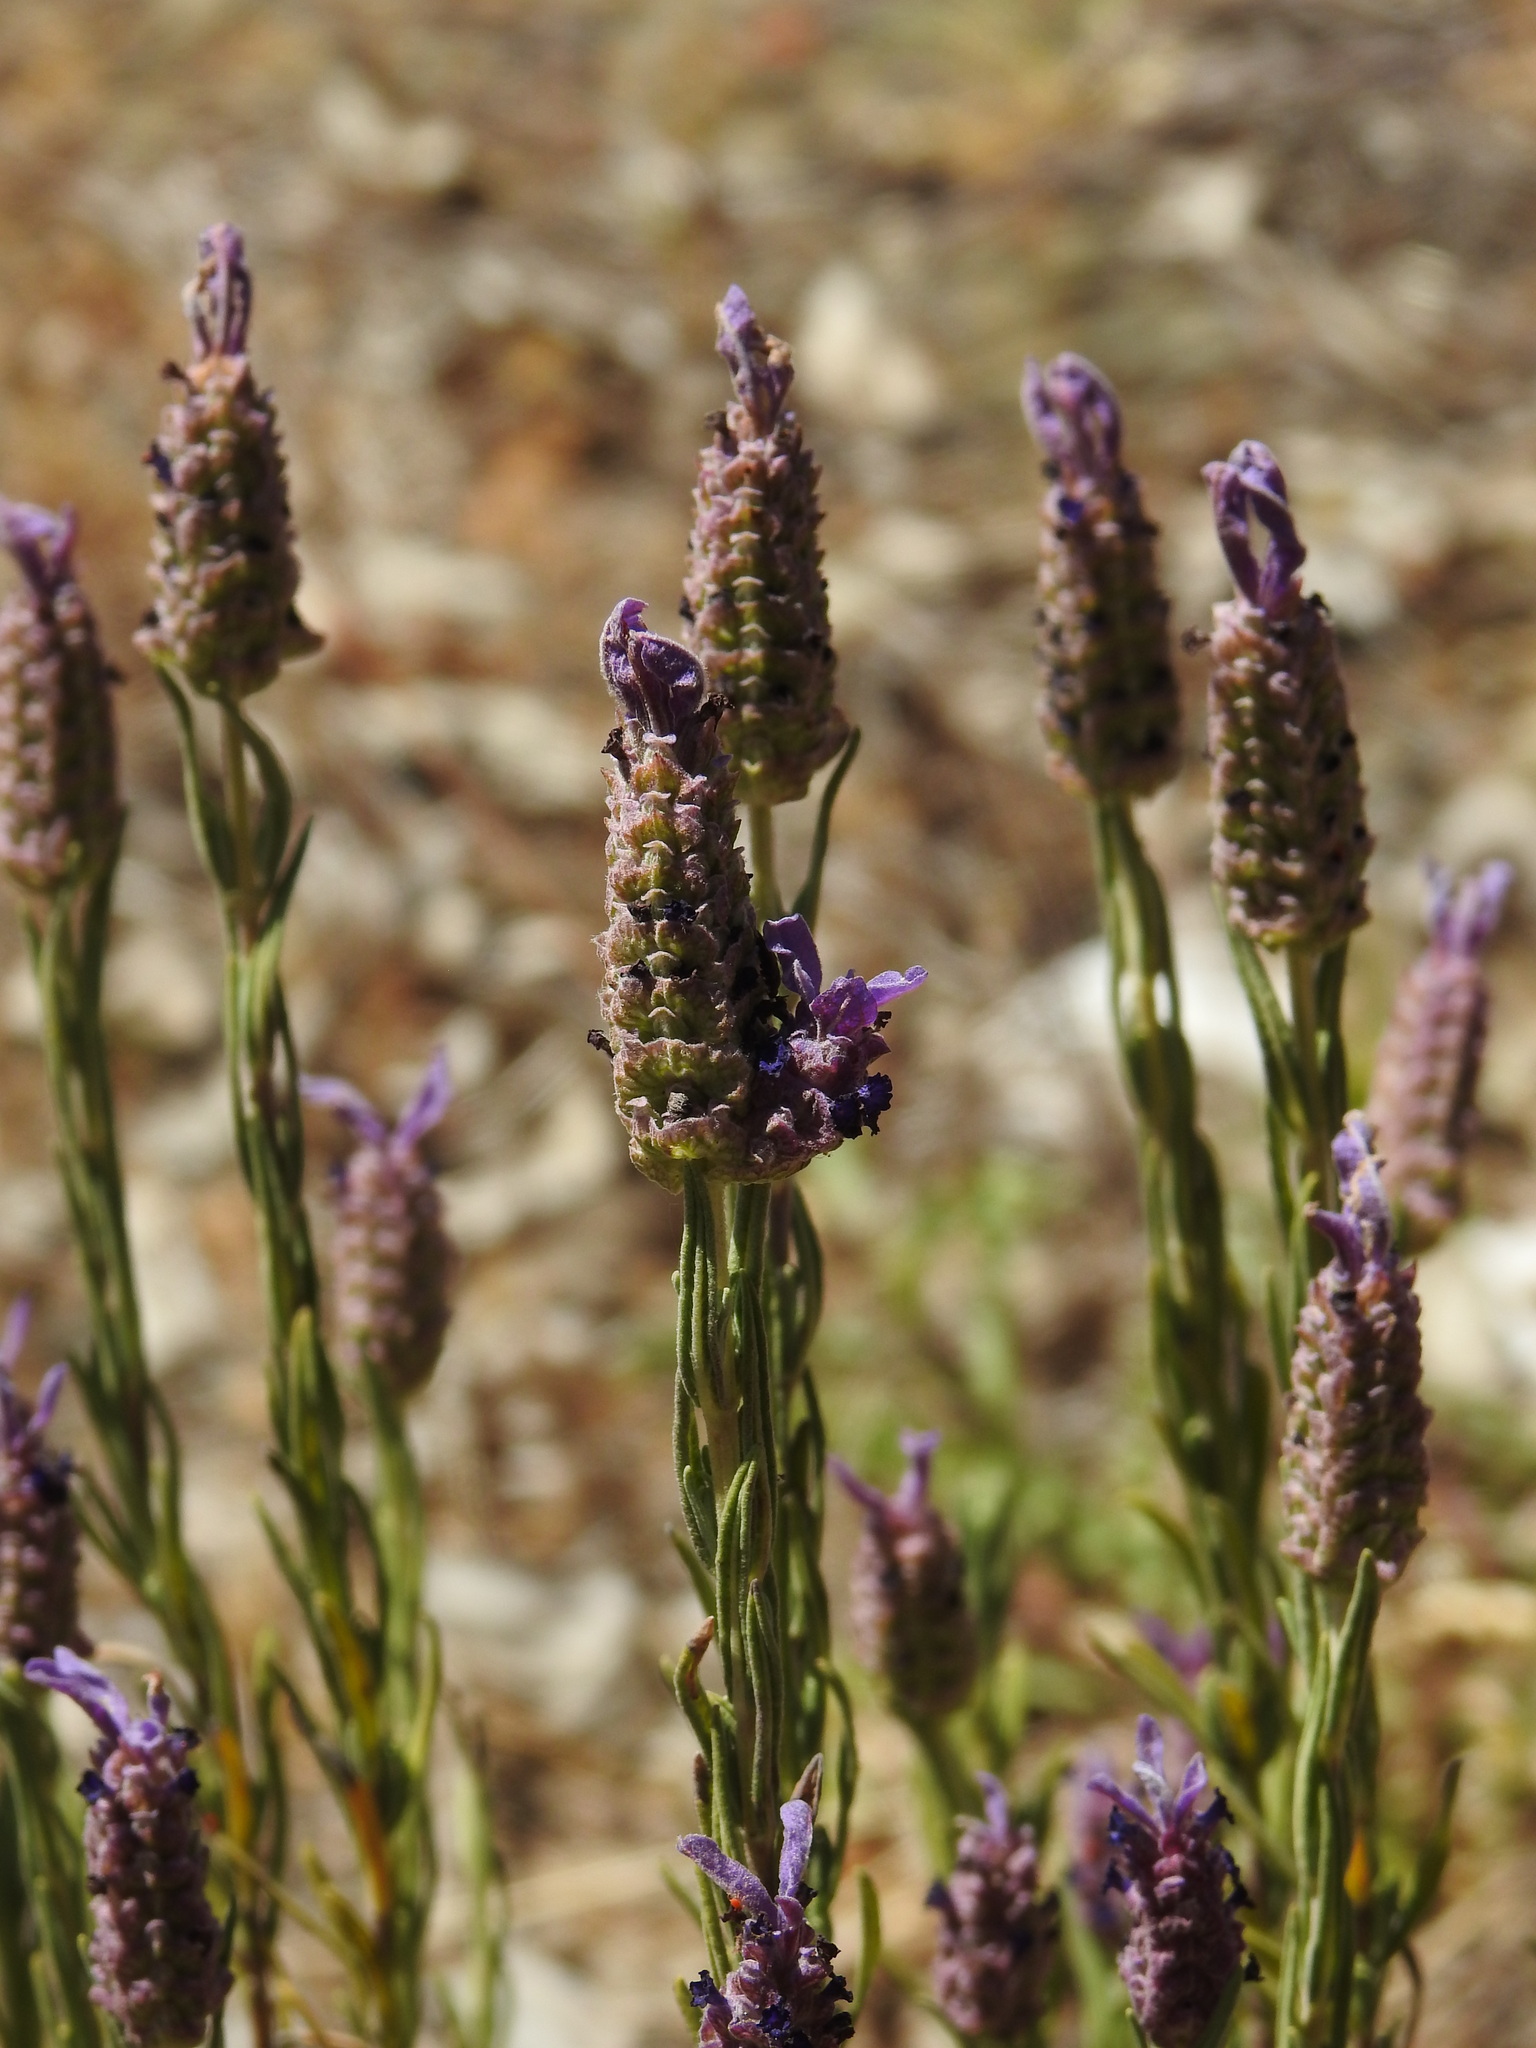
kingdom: Plantae
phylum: Tracheophyta
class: Magnoliopsida
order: Lamiales
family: Lamiaceae
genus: Lavandula
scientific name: Lavandula stoechas
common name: French lavender
